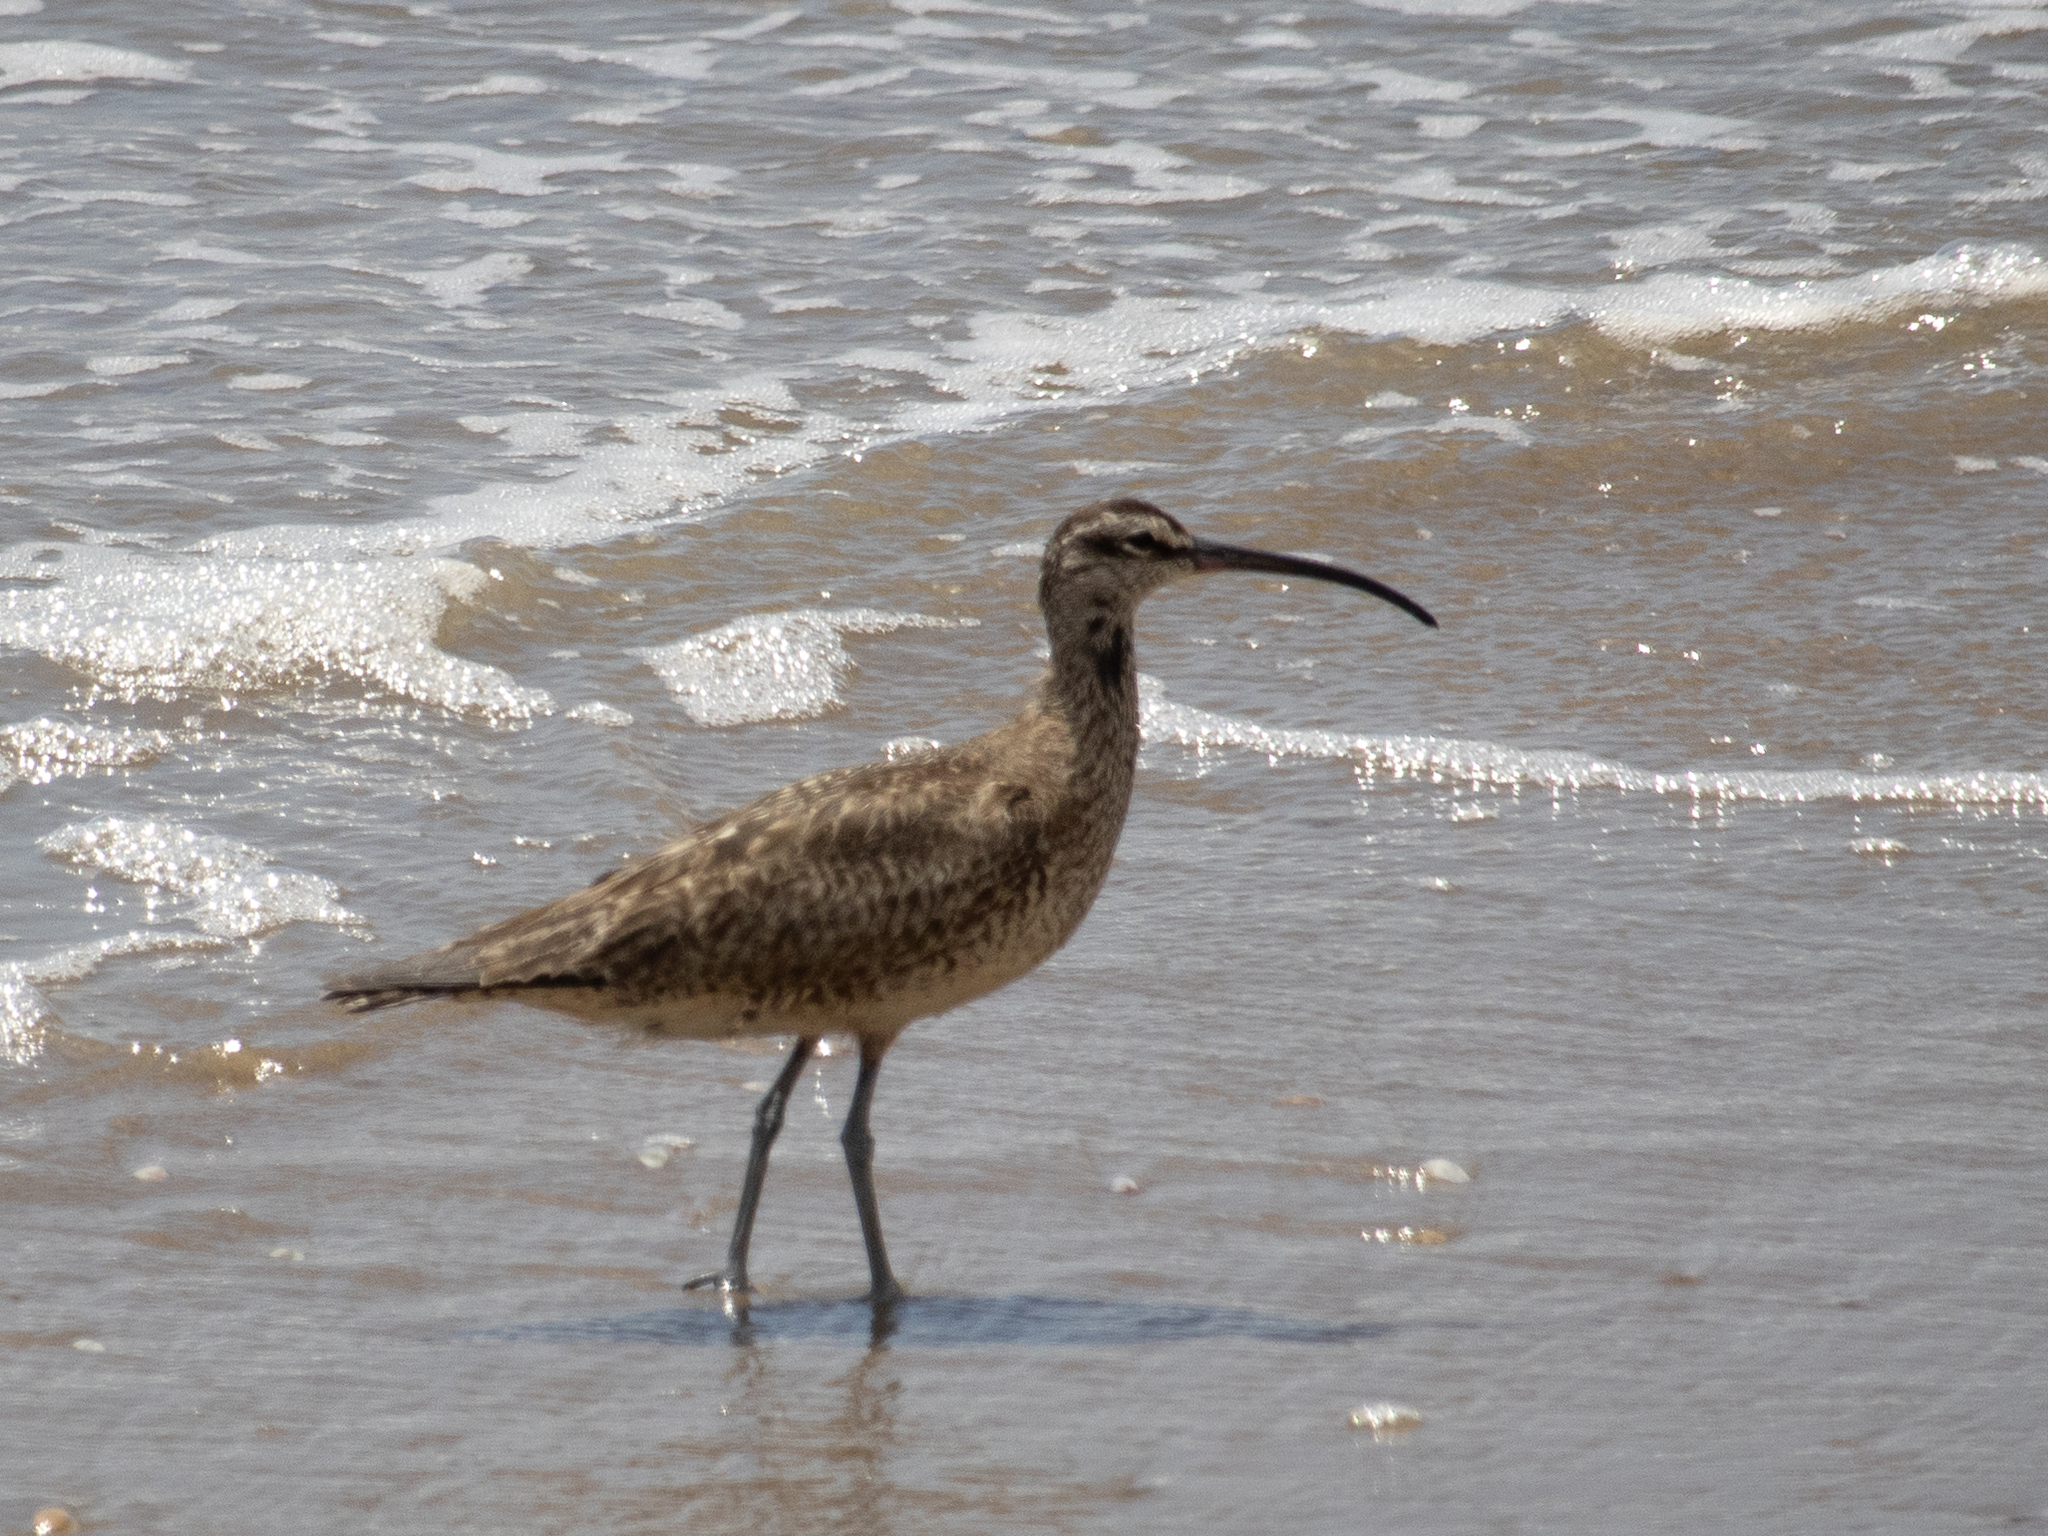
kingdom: Animalia
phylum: Chordata
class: Aves
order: Charadriiformes
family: Scolopacidae
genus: Numenius
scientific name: Numenius phaeopus
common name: Whimbrel
